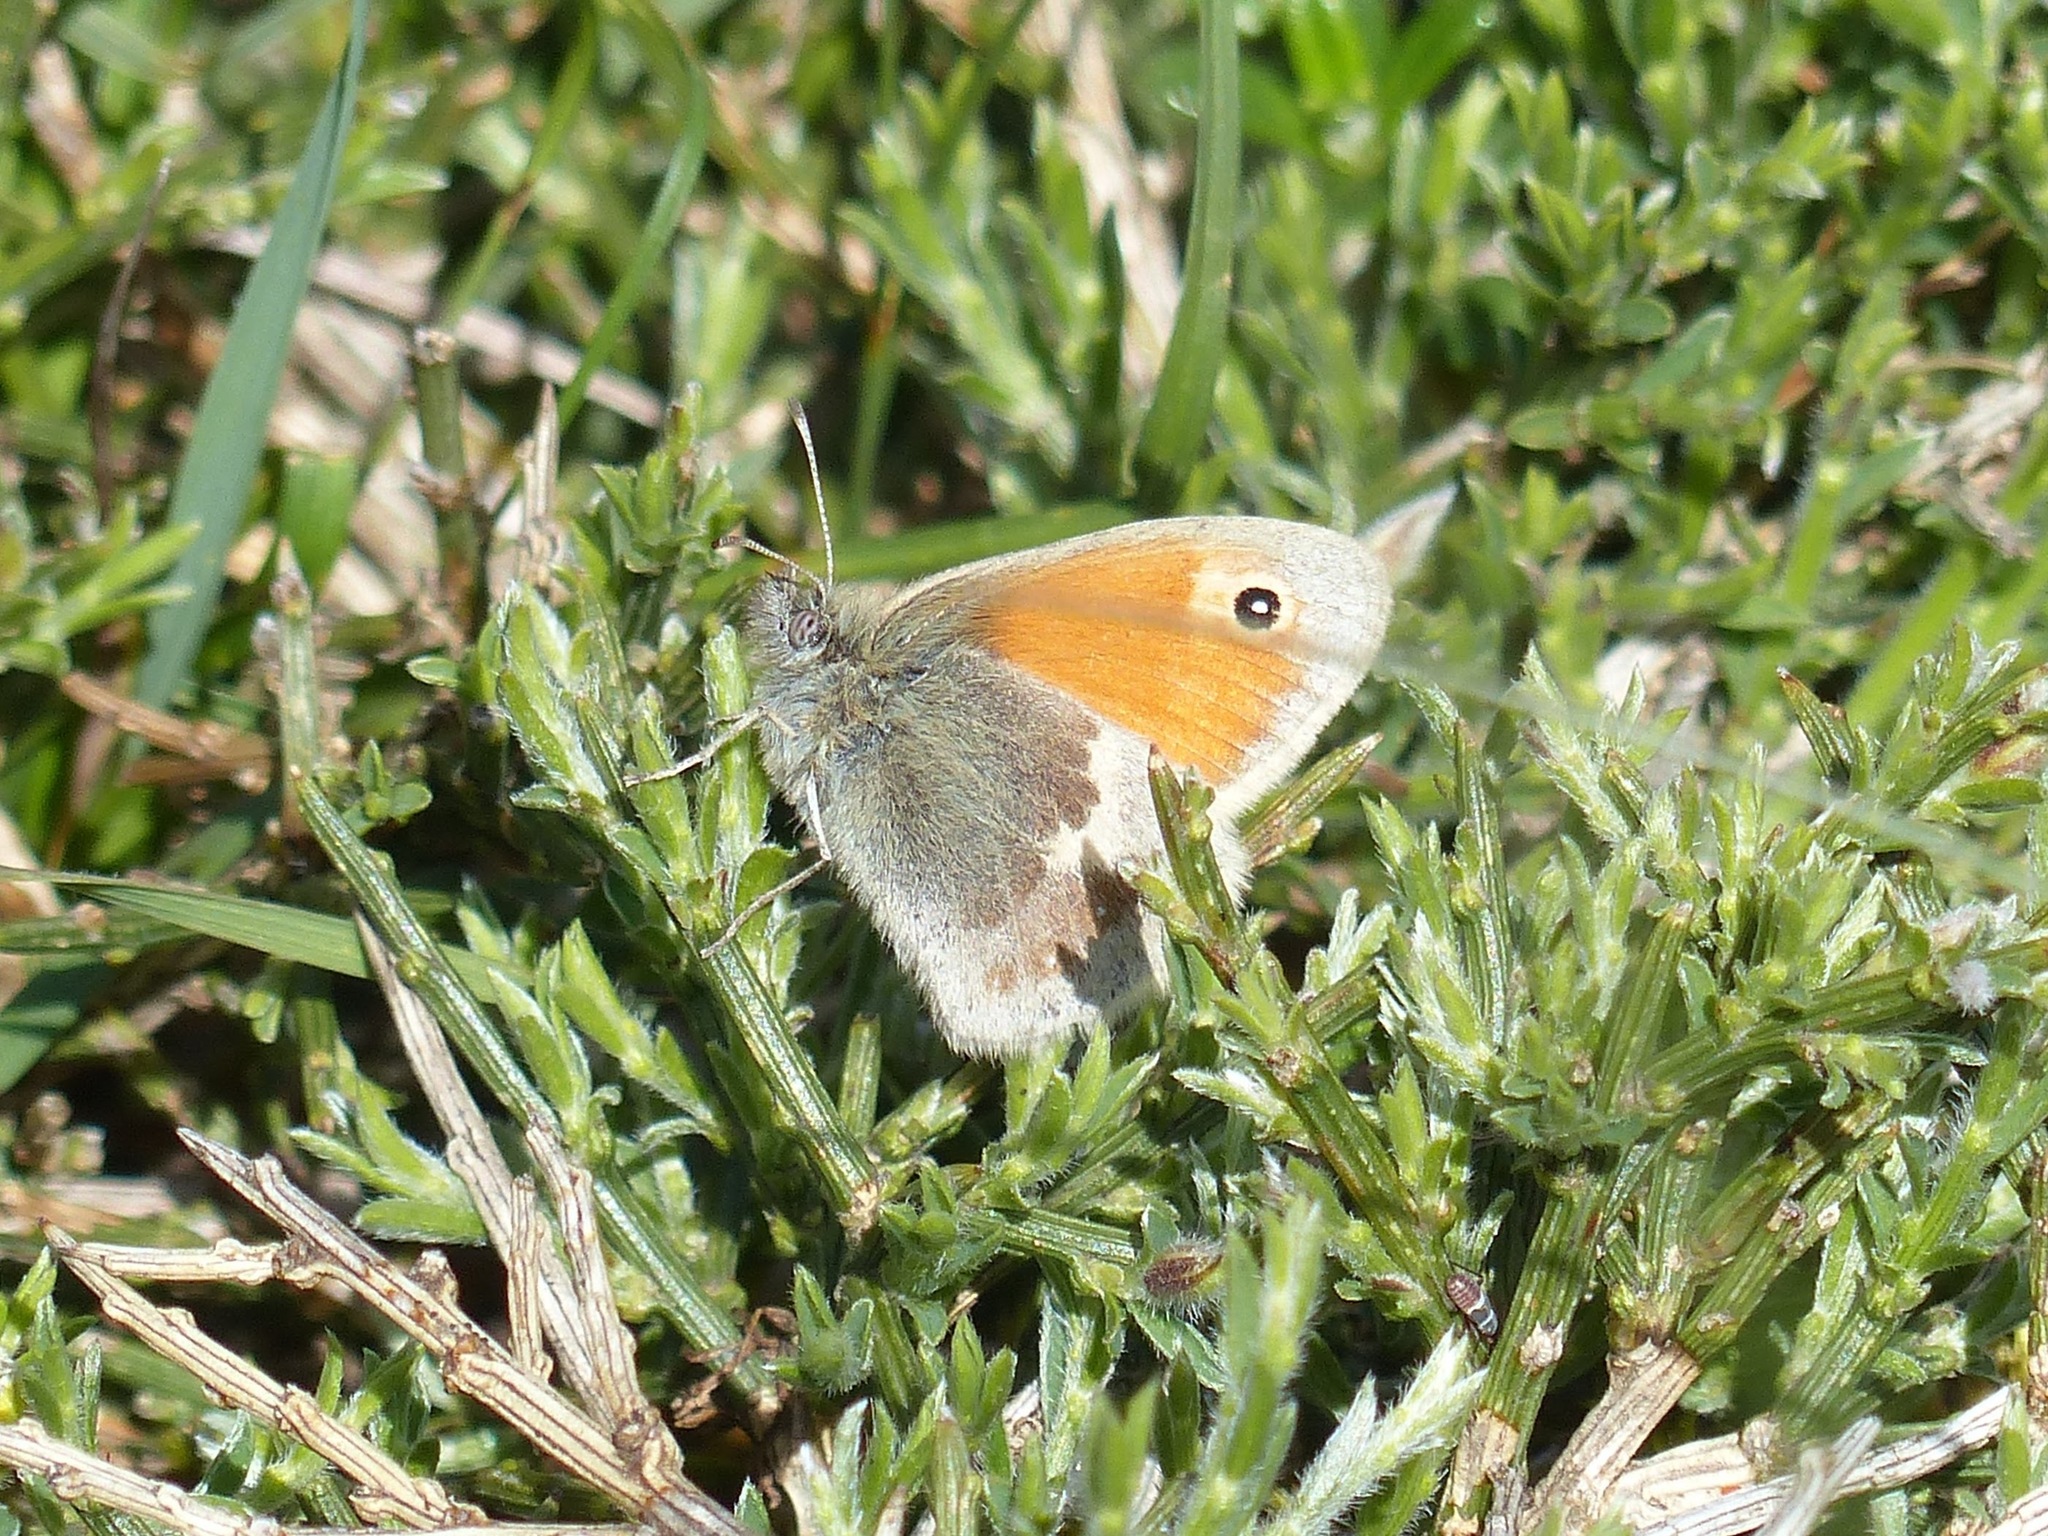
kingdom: Animalia
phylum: Arthropoda
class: Insecta
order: Lepidoptera
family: Nymphalidae
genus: Coenonympha
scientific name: Coenonympha pamphilus
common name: Small heath
